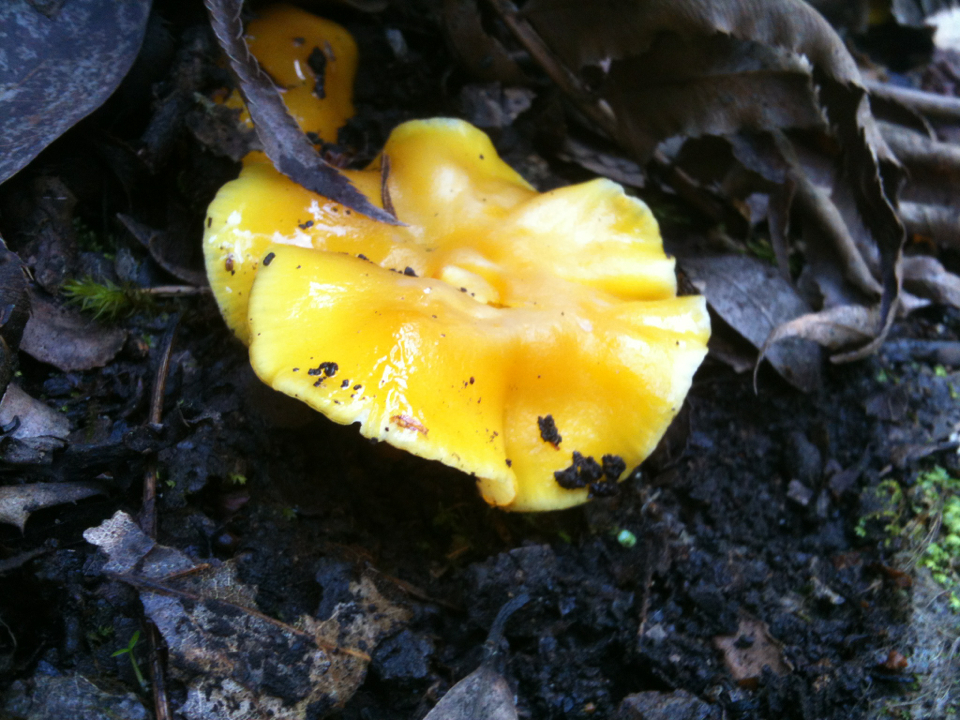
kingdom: Fungi
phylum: Basidiomycota
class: Agaricomycetes
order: Agaricales
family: Hygrophoraceae
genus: Hygrocybe
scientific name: Hygrocybe flavescens
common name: Golden waxy cap
